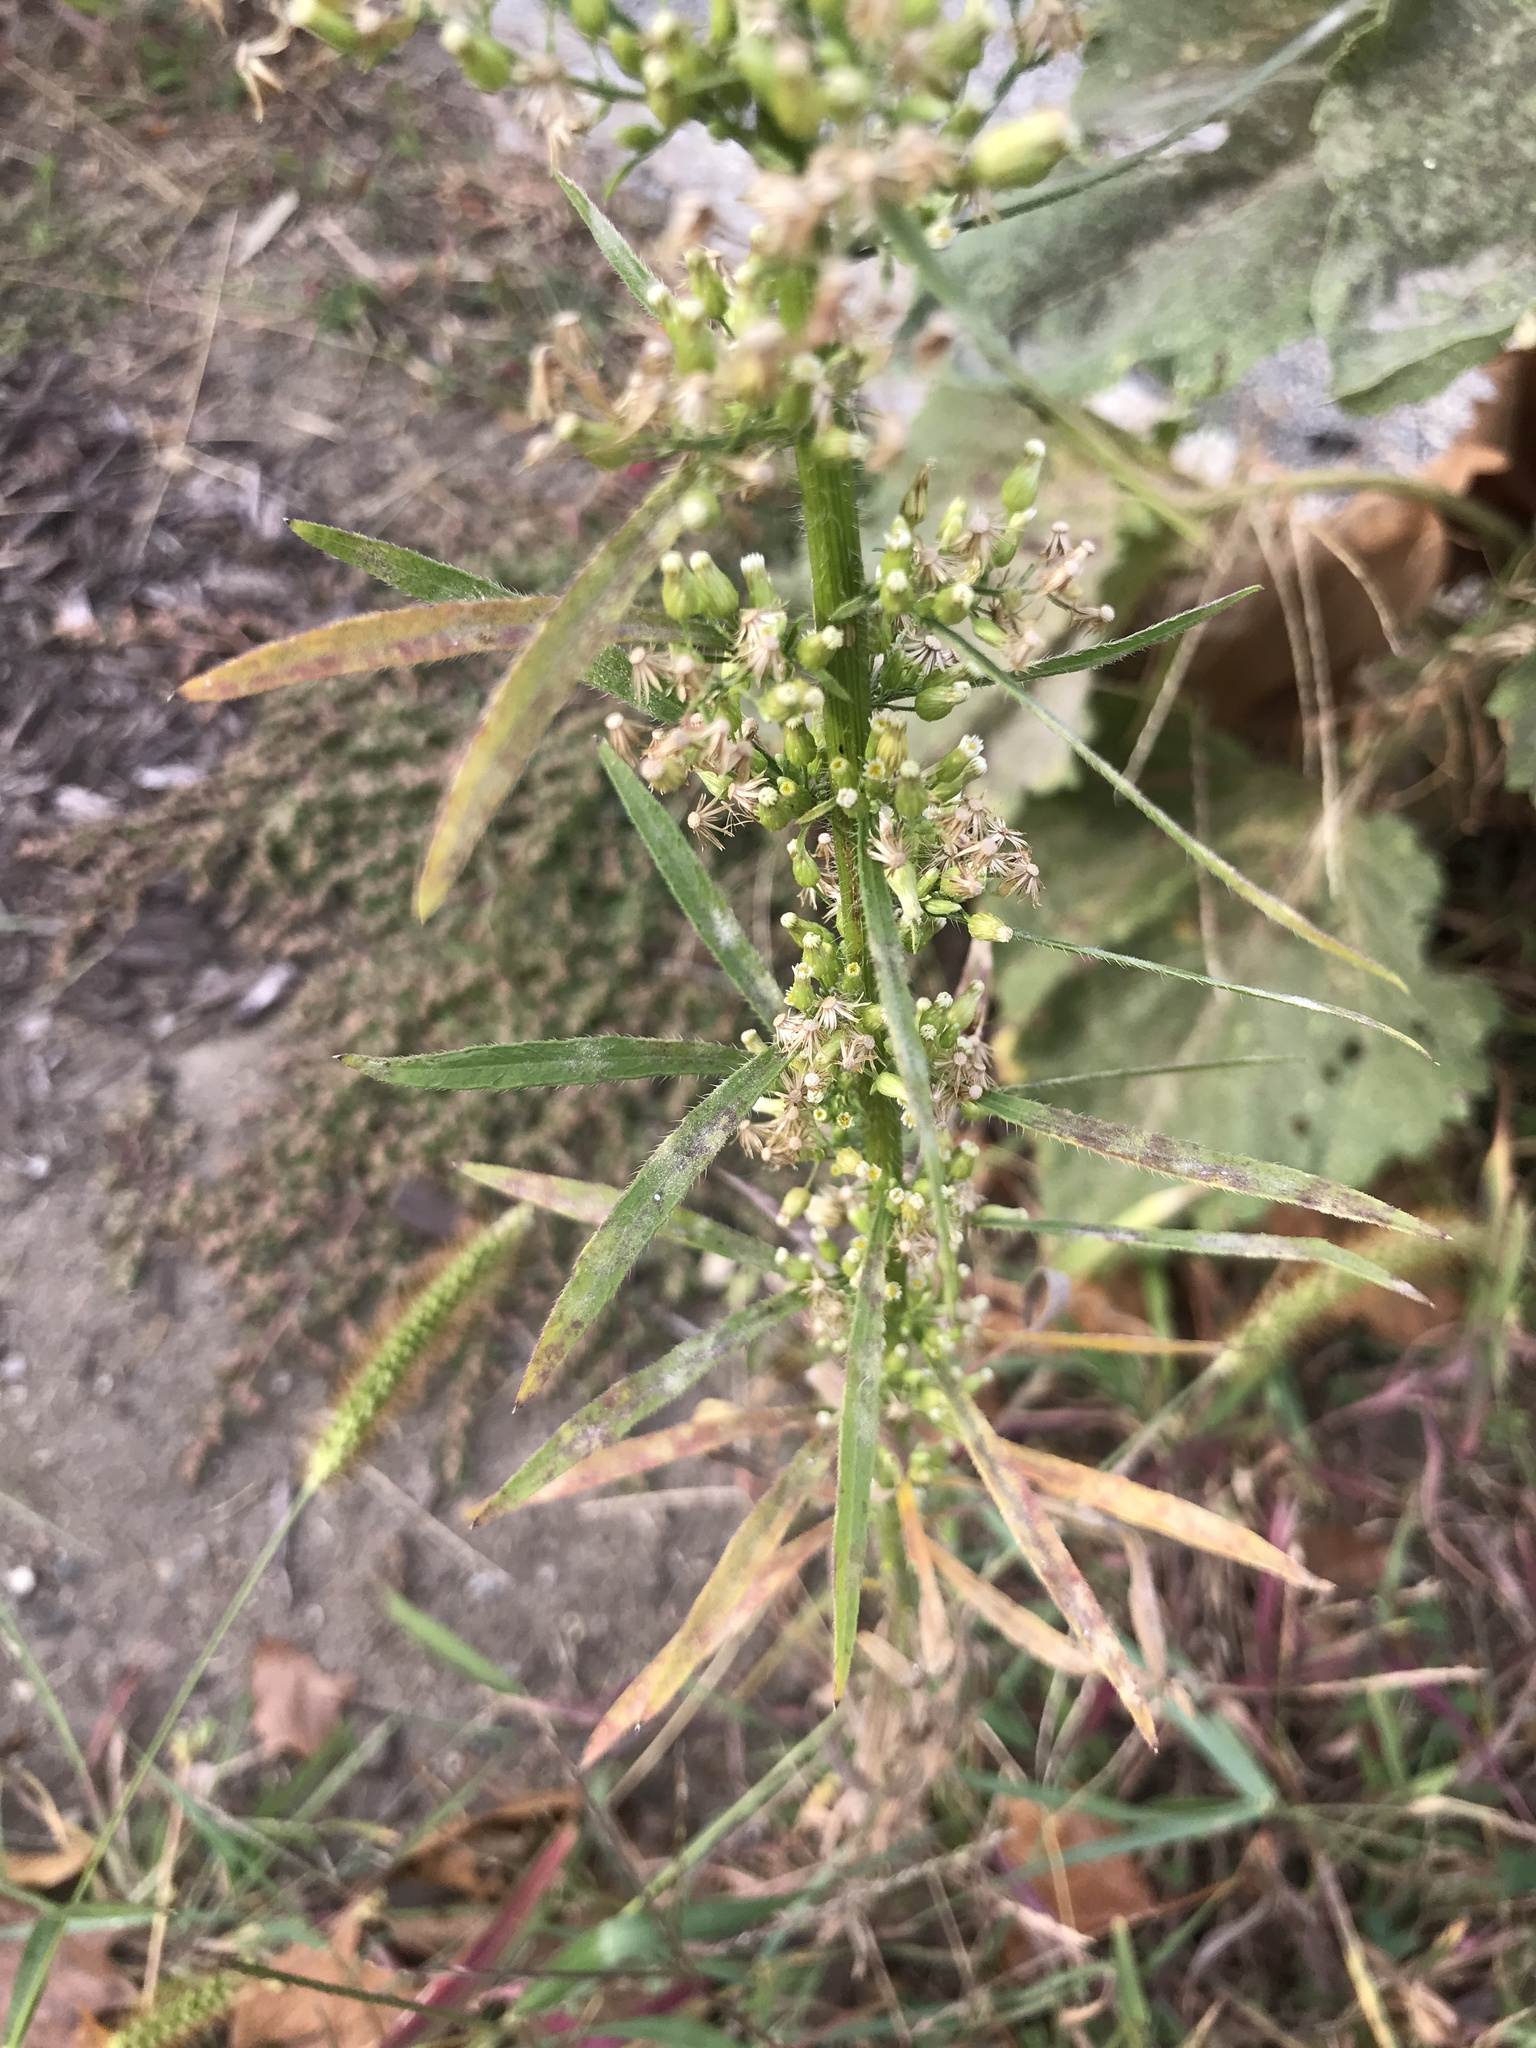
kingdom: Plantae
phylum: Tracheophyta
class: Magnoliopsida
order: Asterales
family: Asteraceae
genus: Erigeron
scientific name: Erigeron canadensis
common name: Canadian fleabane
